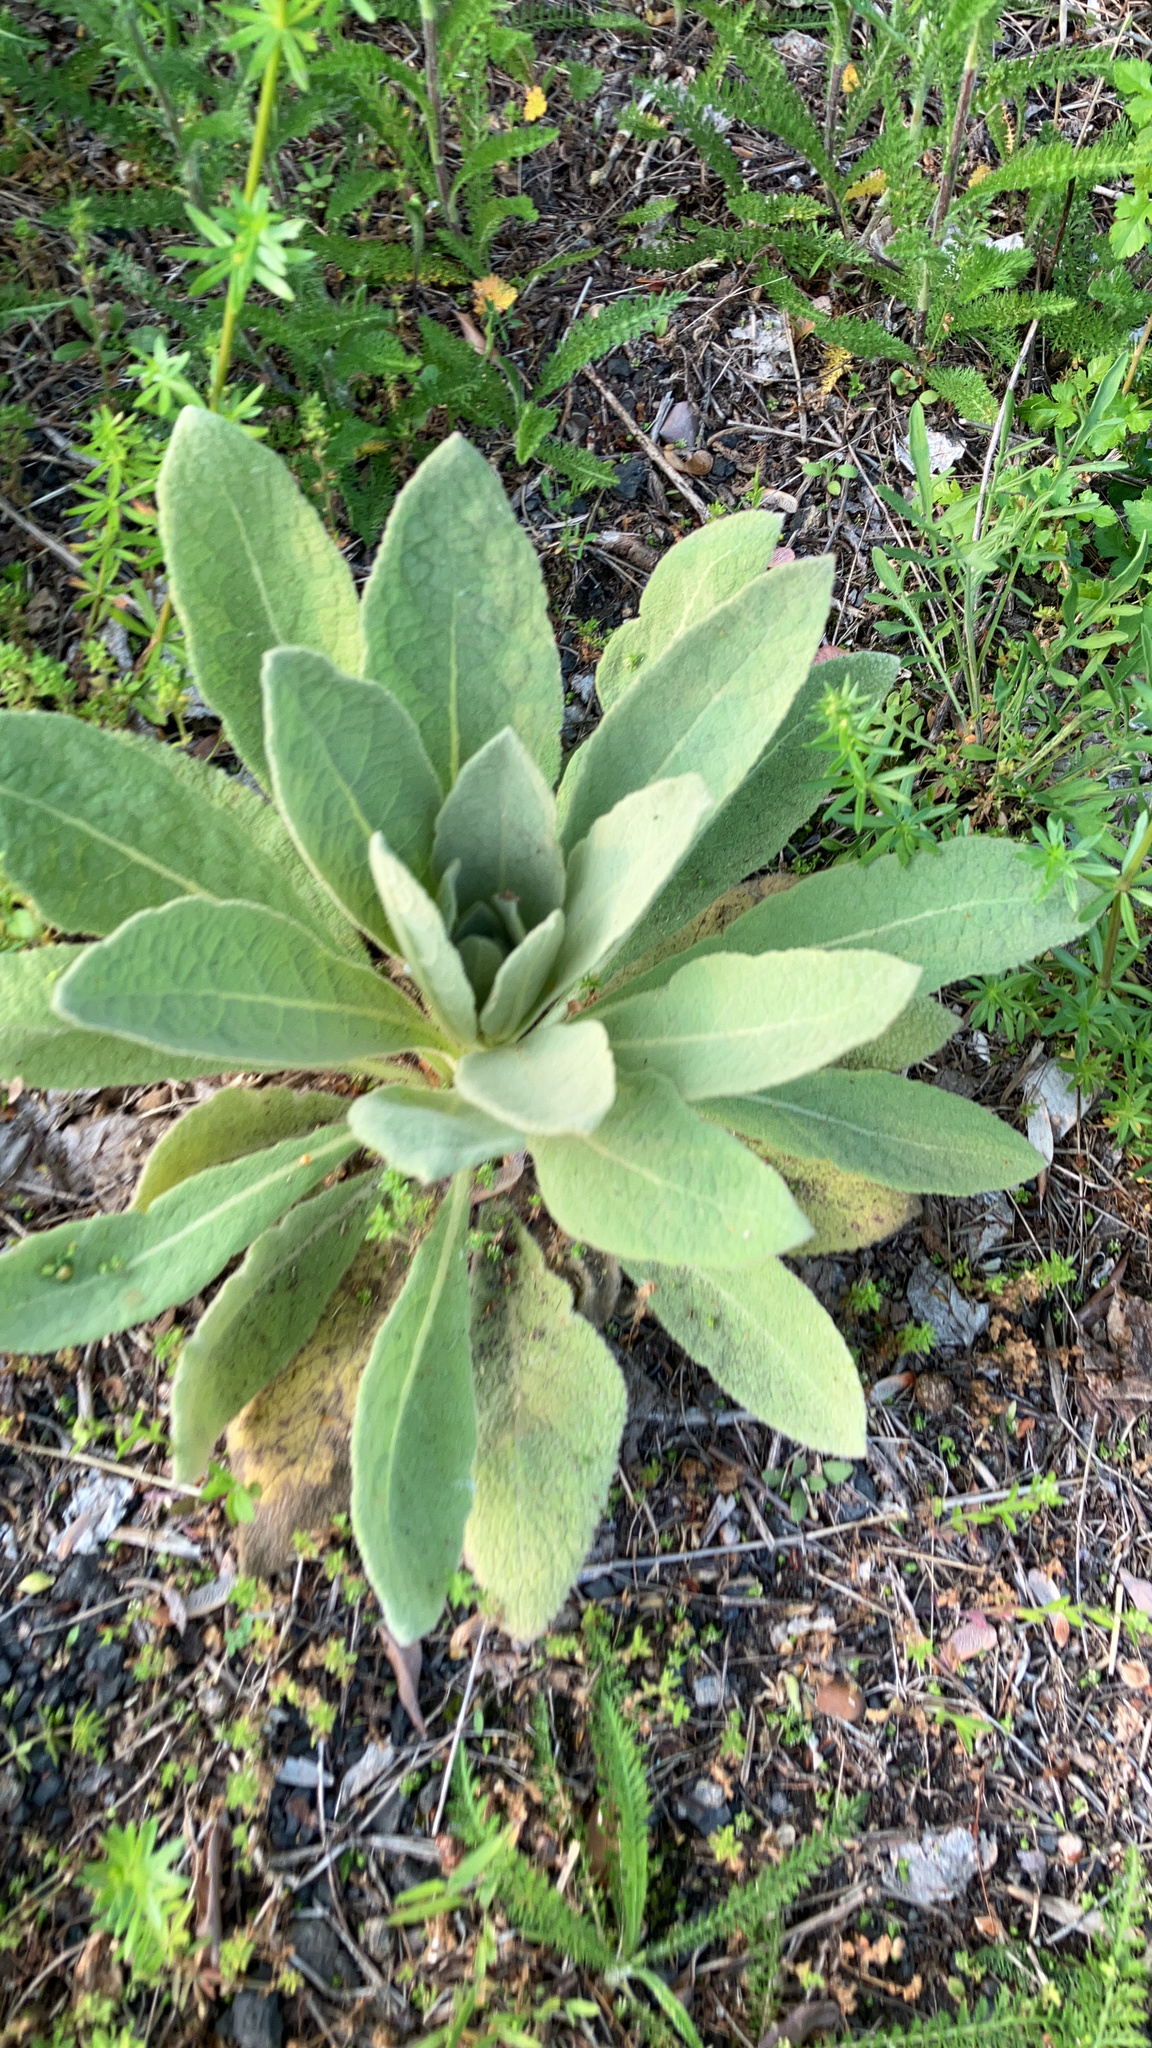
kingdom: Plantae
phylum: Tracheophyta
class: Magnoliopsida
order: Lamiales
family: Scrophulariaceae
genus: Verbascum
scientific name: Verbascum thapsus
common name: Common mullein
